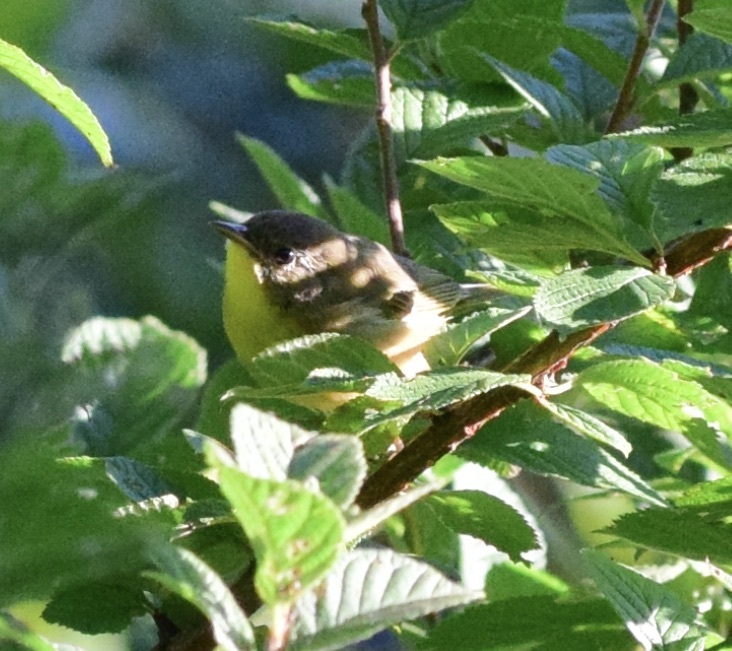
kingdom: Animalia
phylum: Chordata
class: Aves
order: Passeriformes
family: Parulidae
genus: Geothlypis
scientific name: Geothlypis trichas
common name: Common yellowthroat
